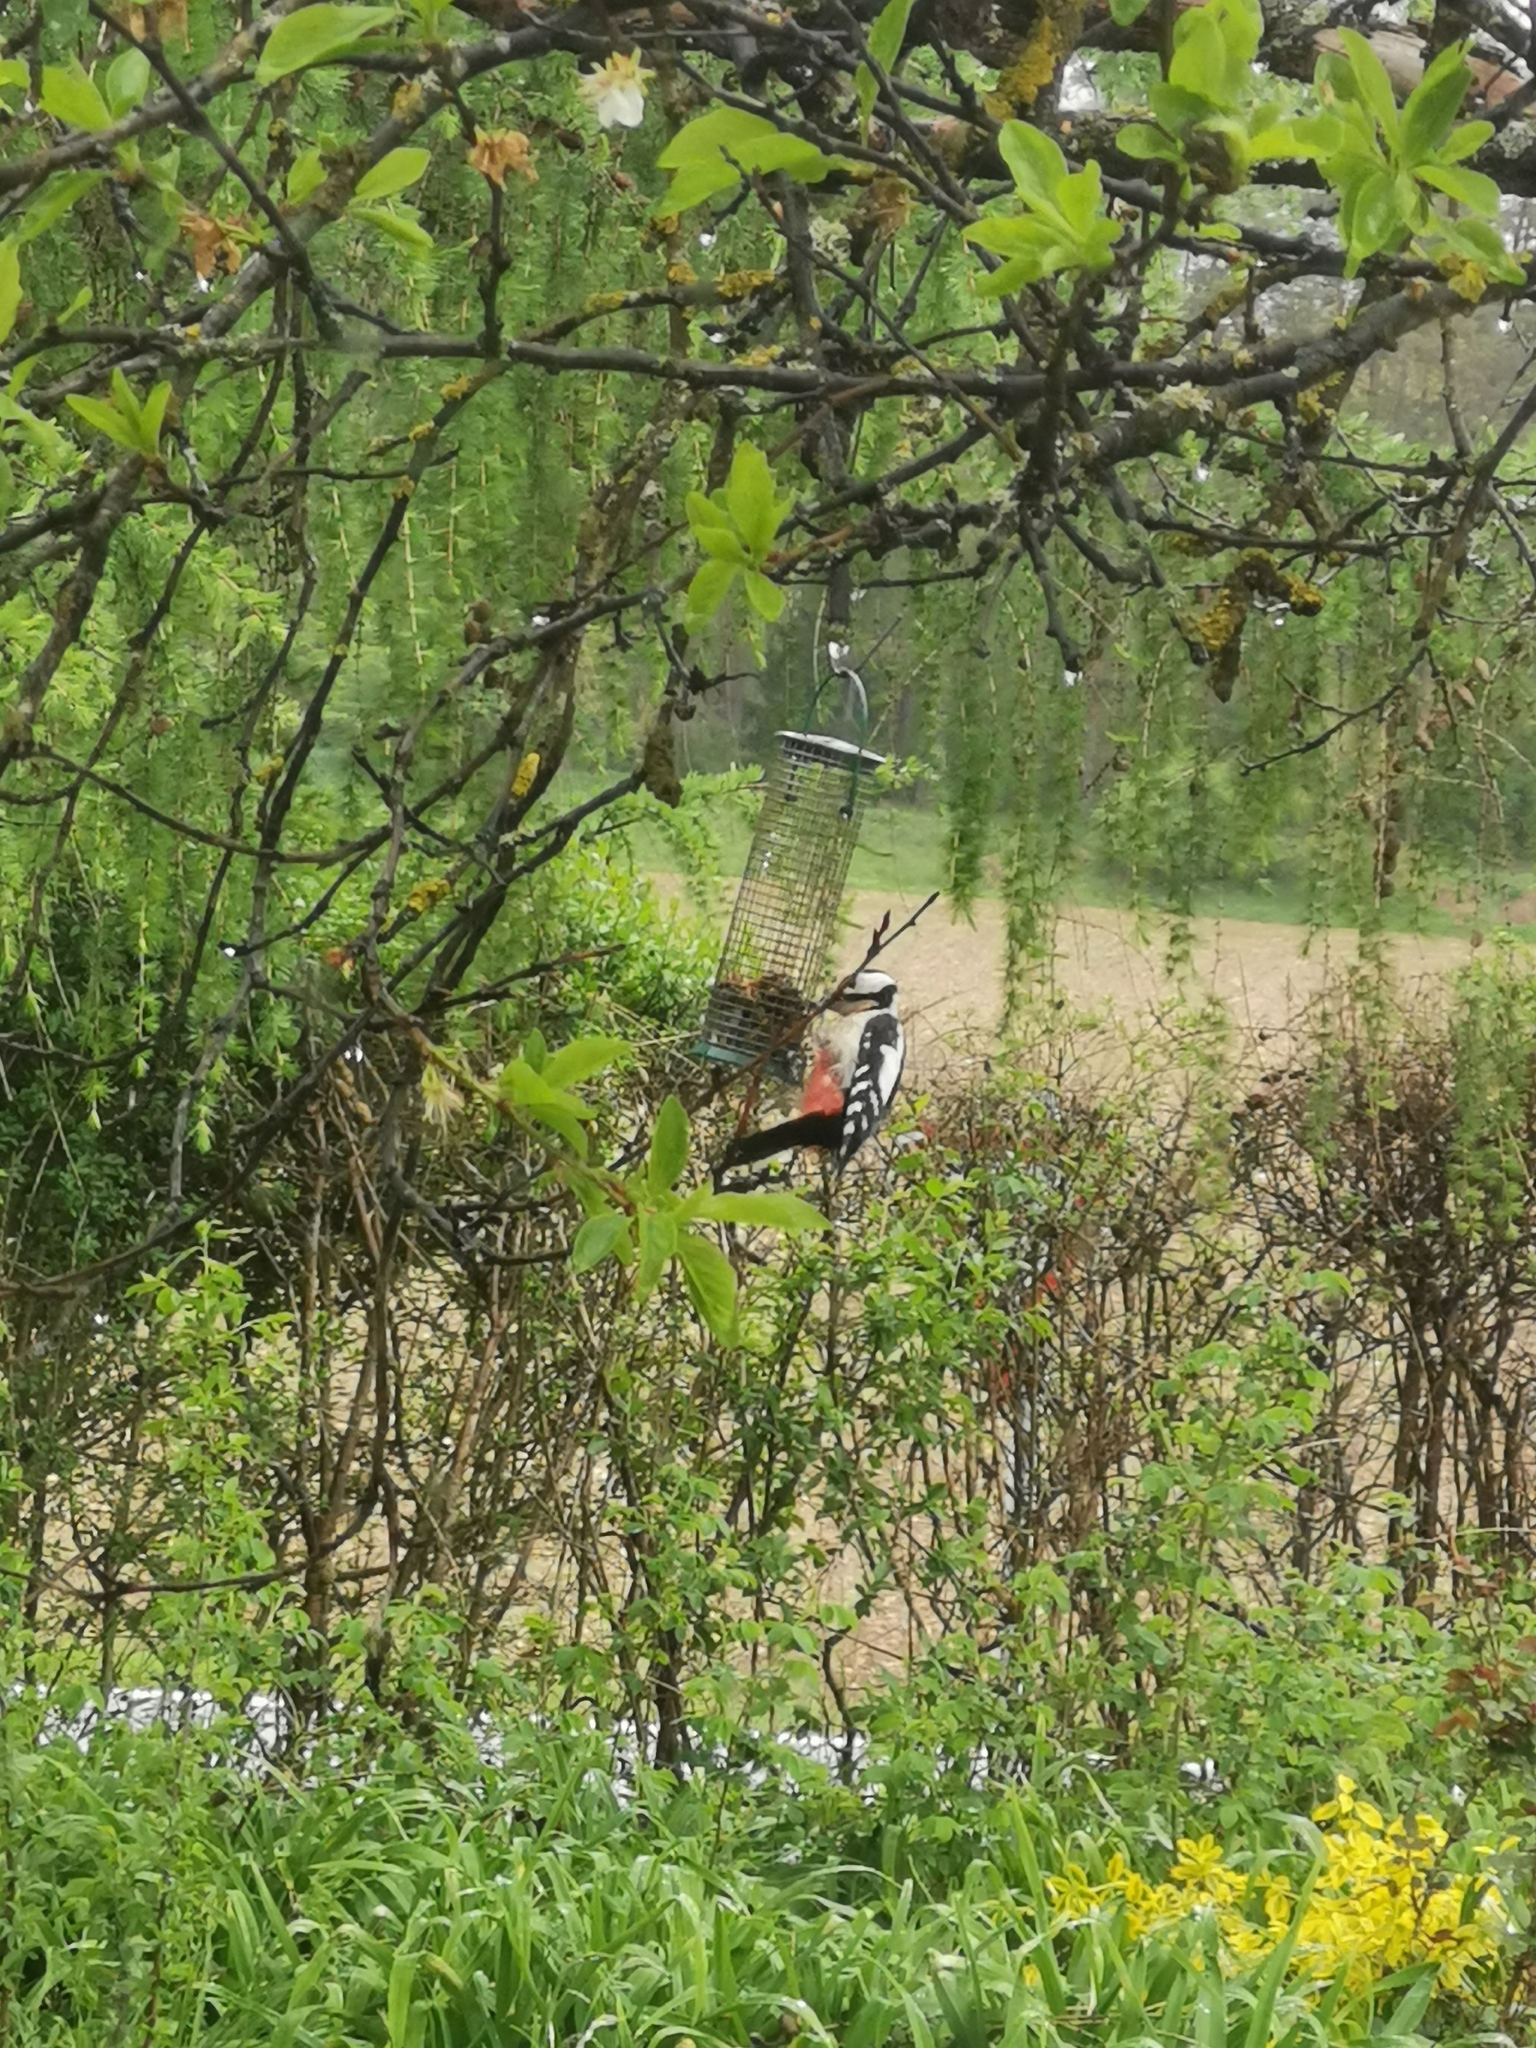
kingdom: Animalia
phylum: Chordata
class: Aves
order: Piciformes
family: Picidae
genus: Dendrocopos
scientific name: Dendrocopos major
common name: Great spotted woodpecker
